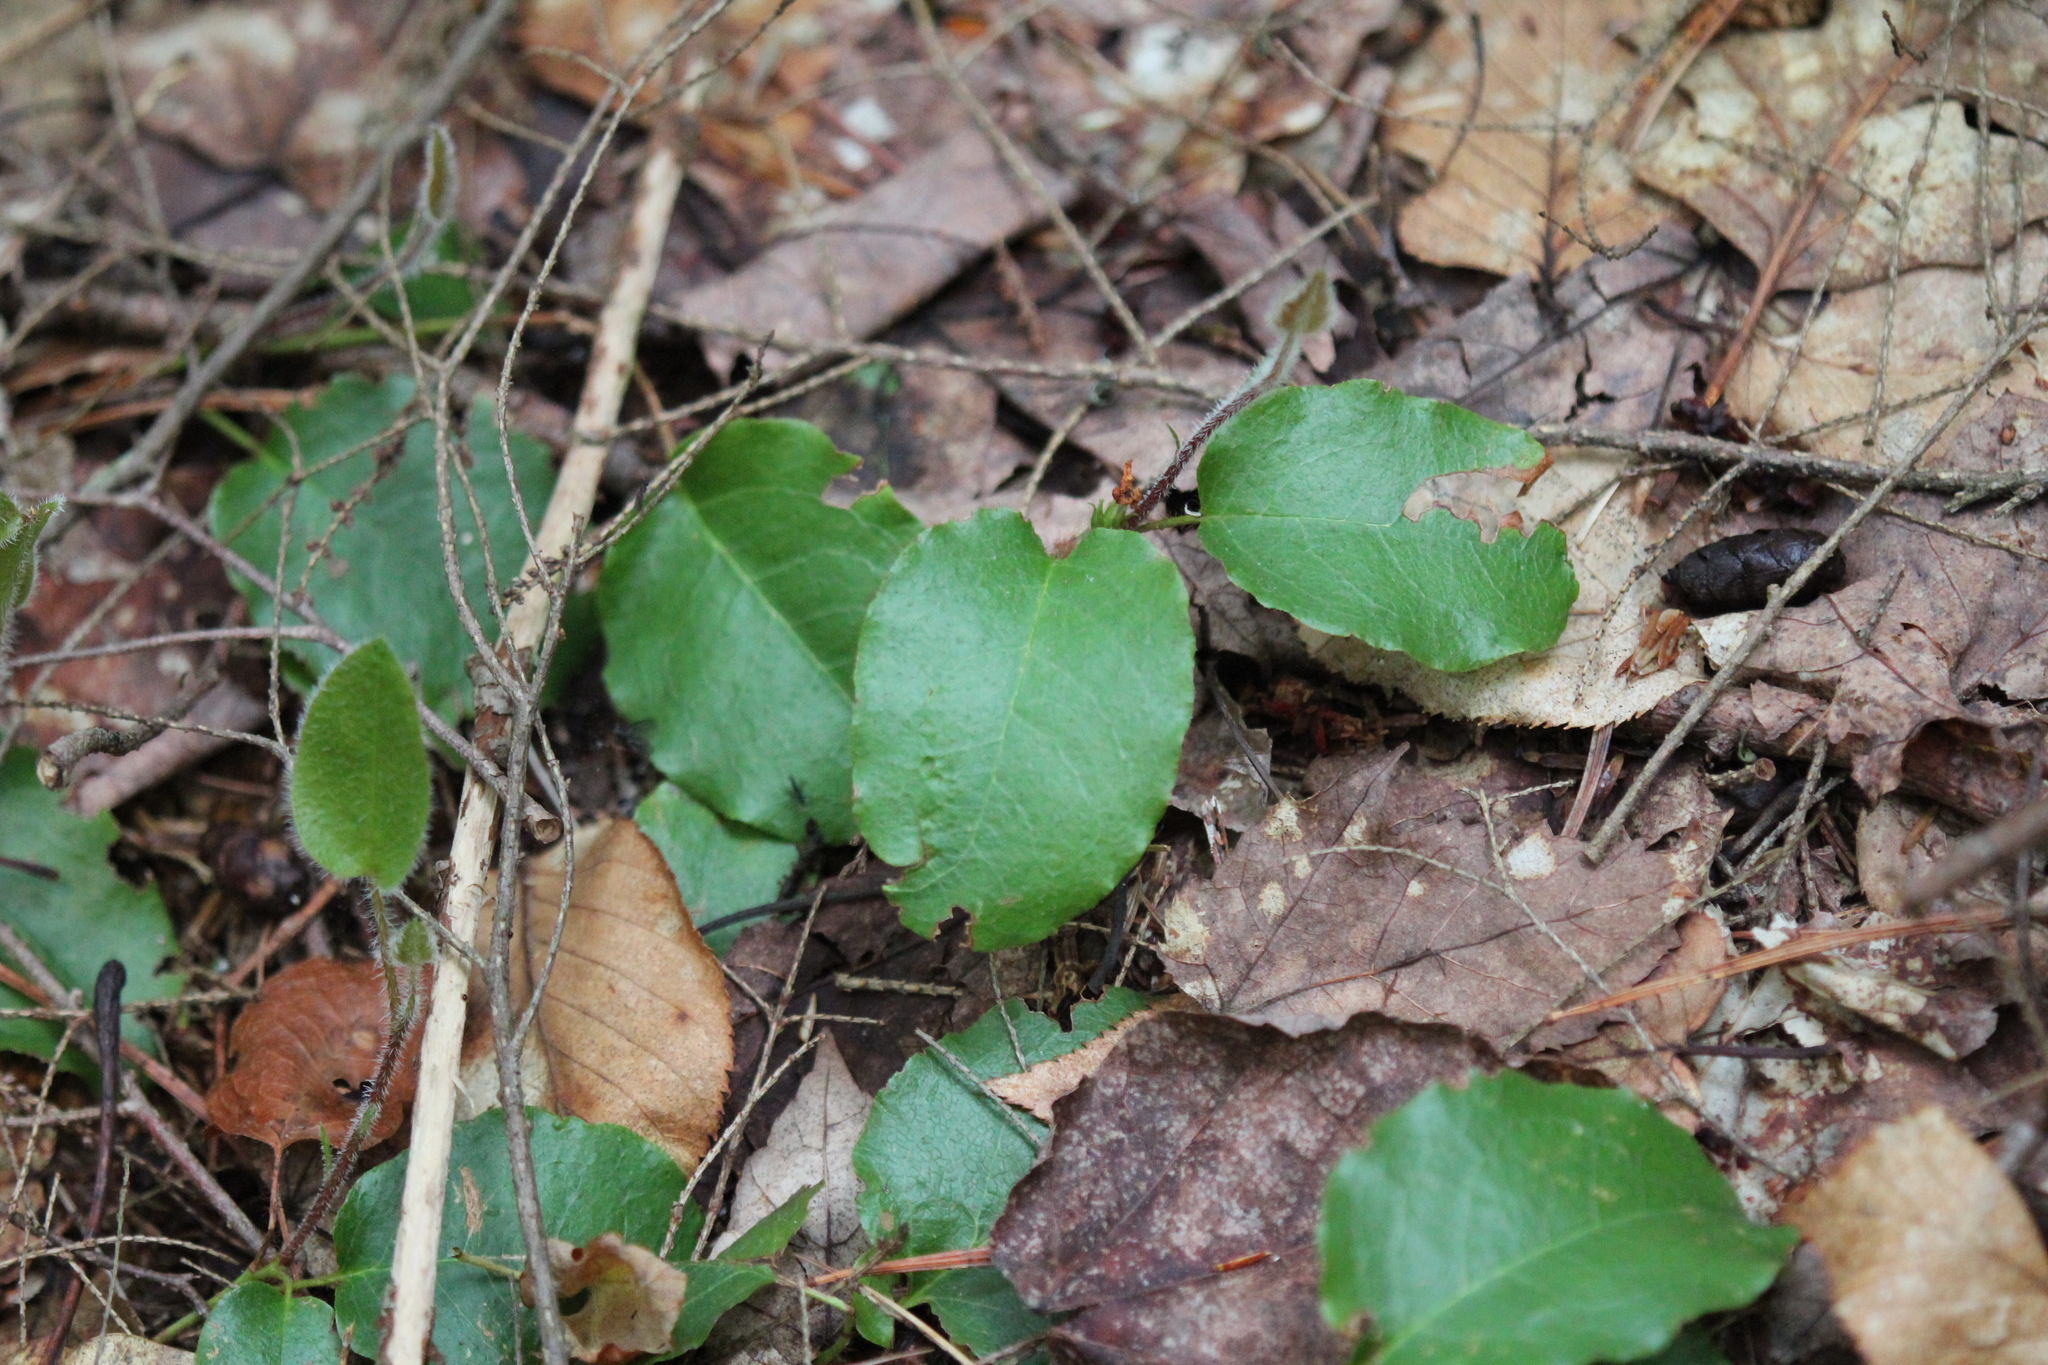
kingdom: Plantae
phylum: Tracheophyta
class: Magnoliopsida
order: Ericales
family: Ericaceae
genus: Epigaea
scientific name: Epigaea repens
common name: Gravelroot
